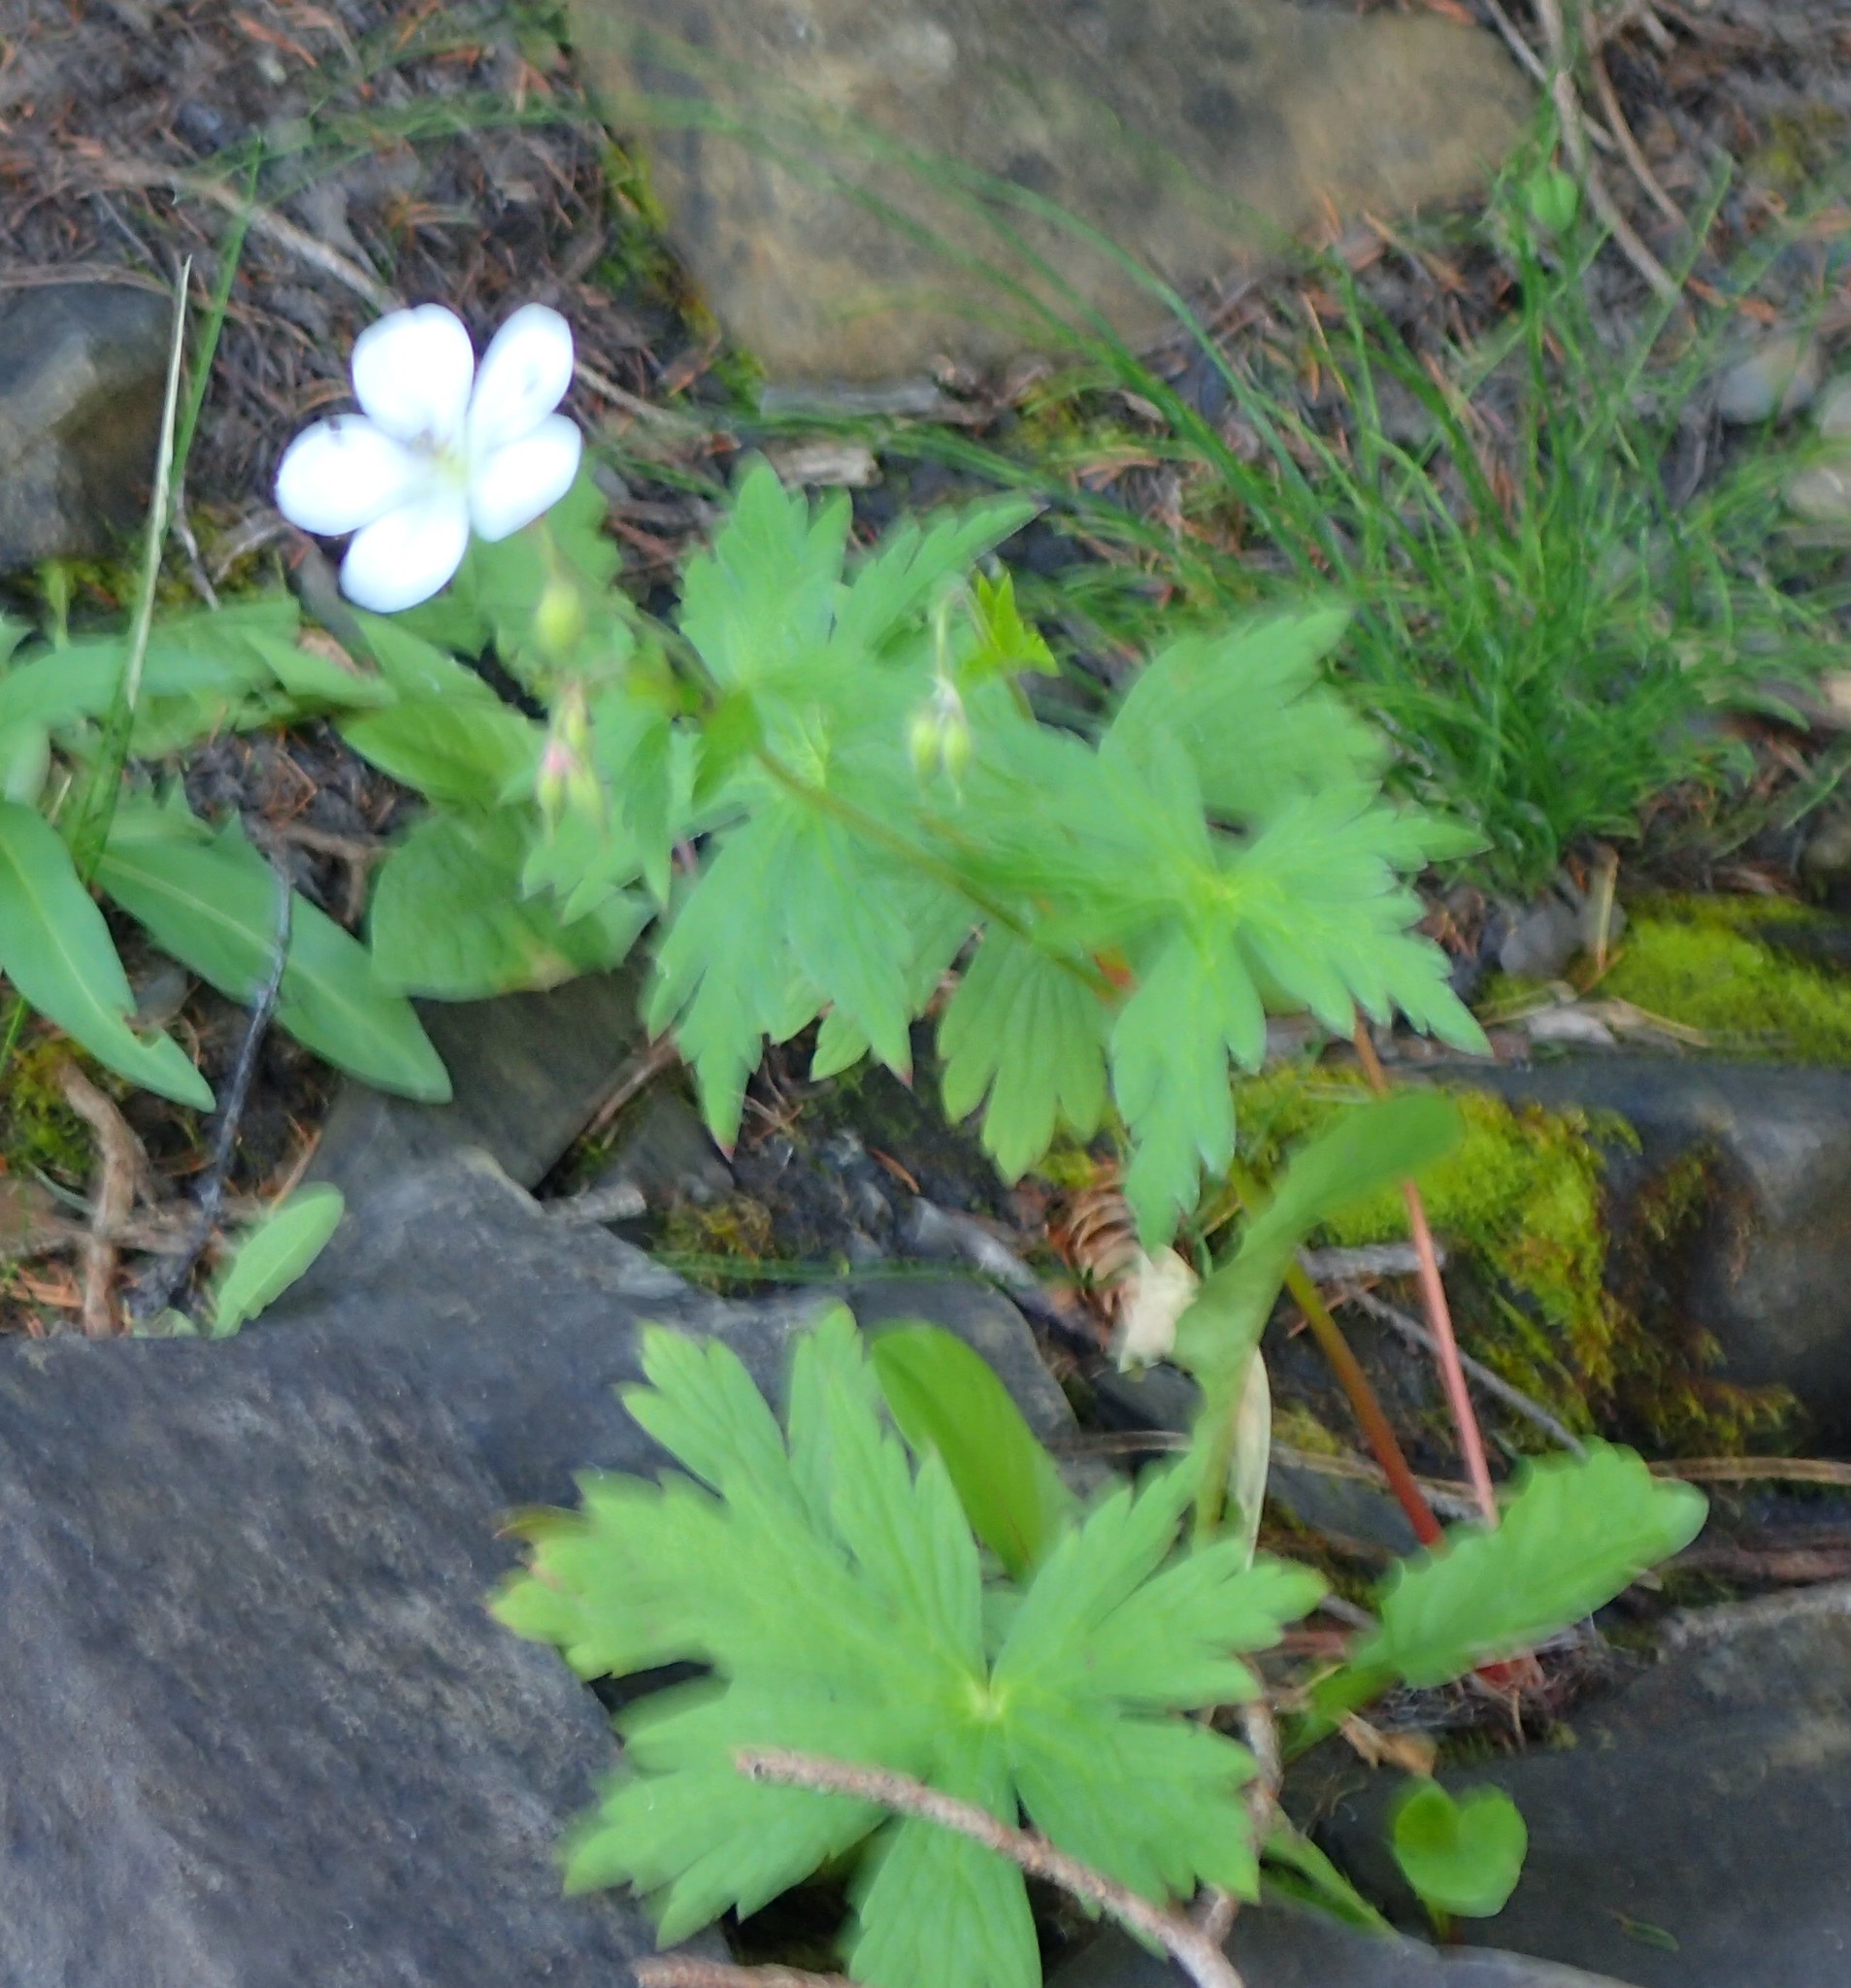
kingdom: Plantae
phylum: Tracheophyta
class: Magnoliopsida
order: Geraniales
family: Geraniaceae
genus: Geranium
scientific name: Geranium richardsonii
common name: Richardson's crane's-bill
